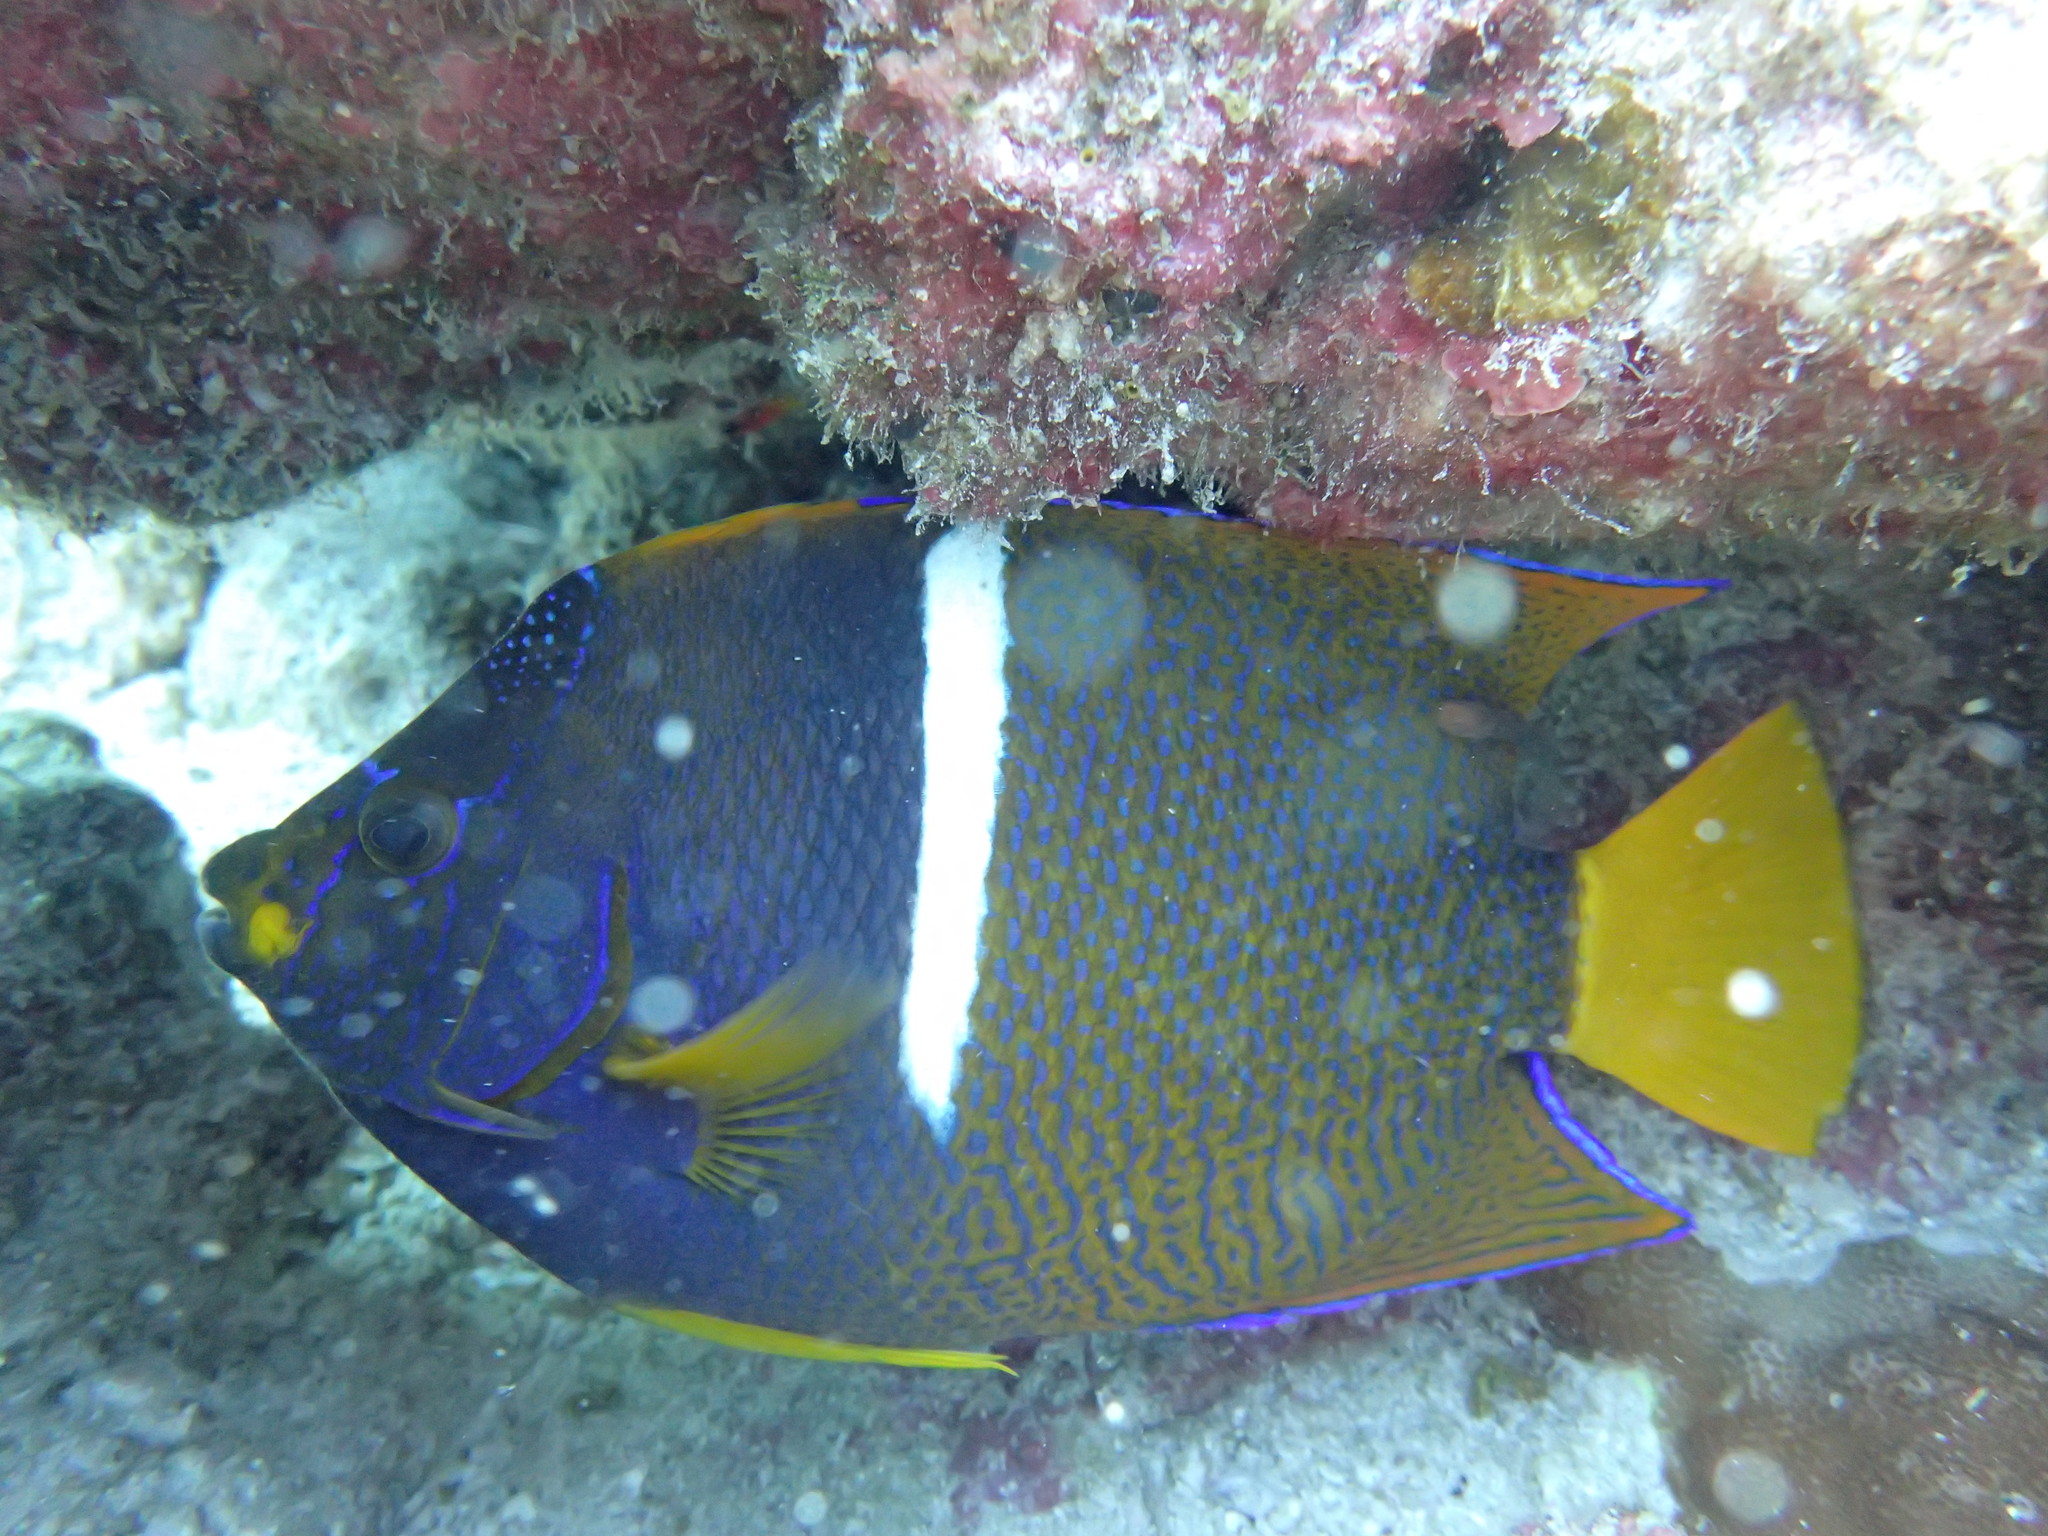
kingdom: Animalia
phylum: Chordata
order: Perciformes
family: Pomacanthidae
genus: Holacanthus
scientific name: Holacanthus passer
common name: King angelfish
